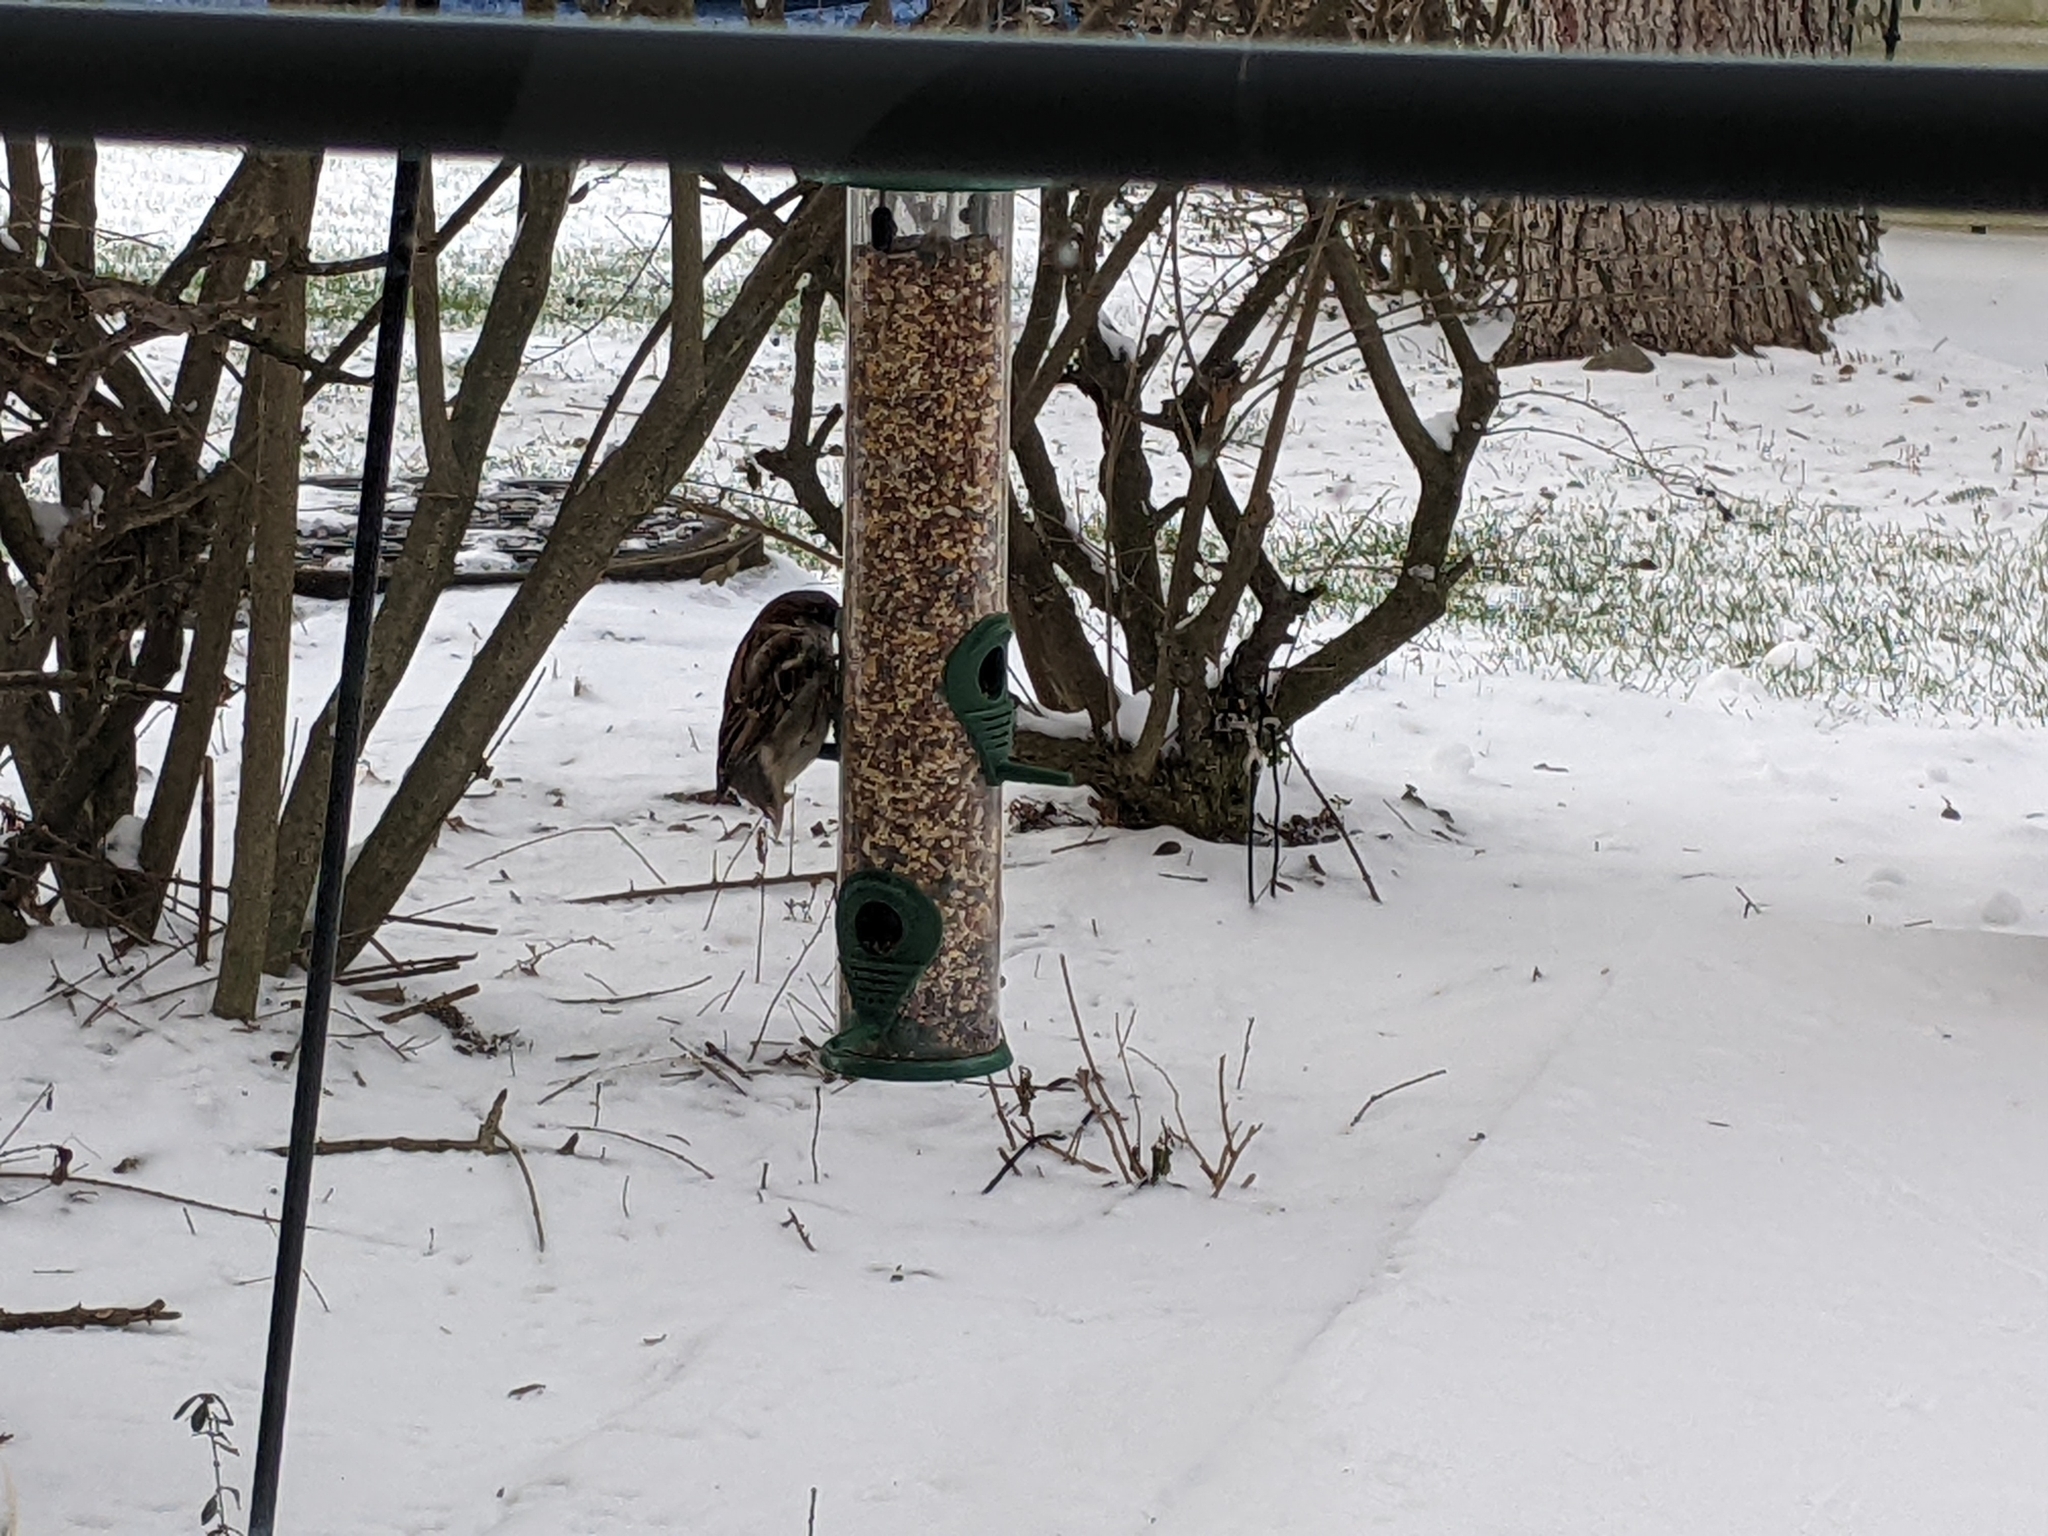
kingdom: Animalia
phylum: Chordata
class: Aves
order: Passeriformes
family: Passeridae
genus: Passer
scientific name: Passer domesticus
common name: House sparrow
